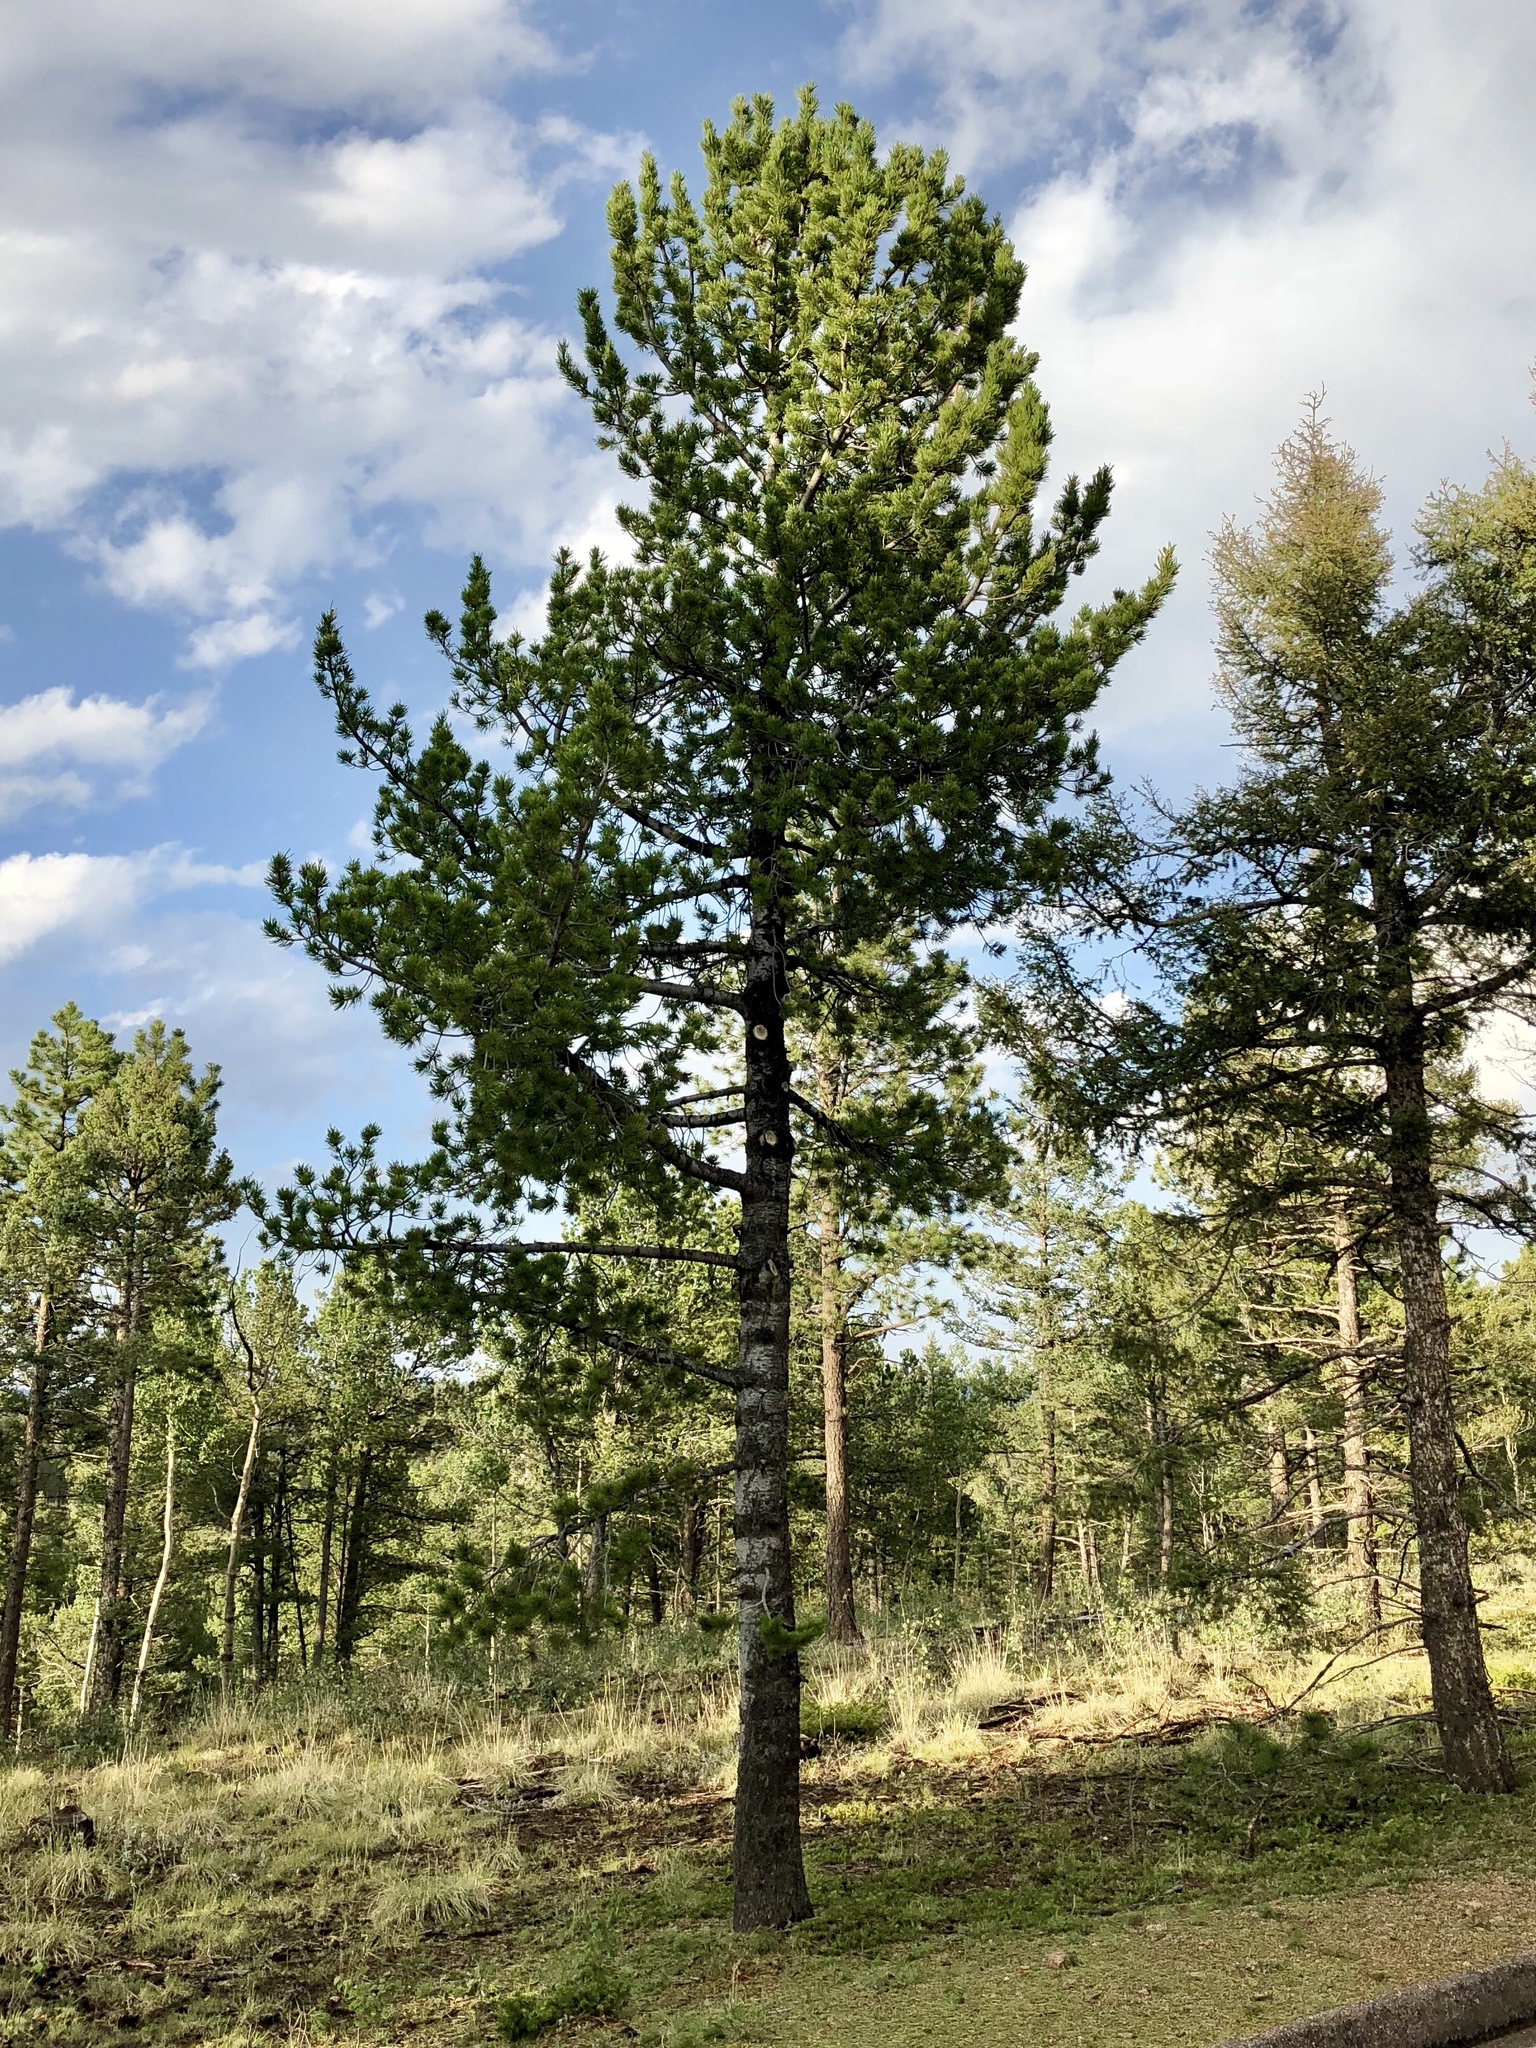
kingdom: Plantae
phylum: Tracheophyta
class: Pinopsida
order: Pinales
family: Pinaceae
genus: Pinus
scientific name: Pinus flexilis
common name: Limber pine
